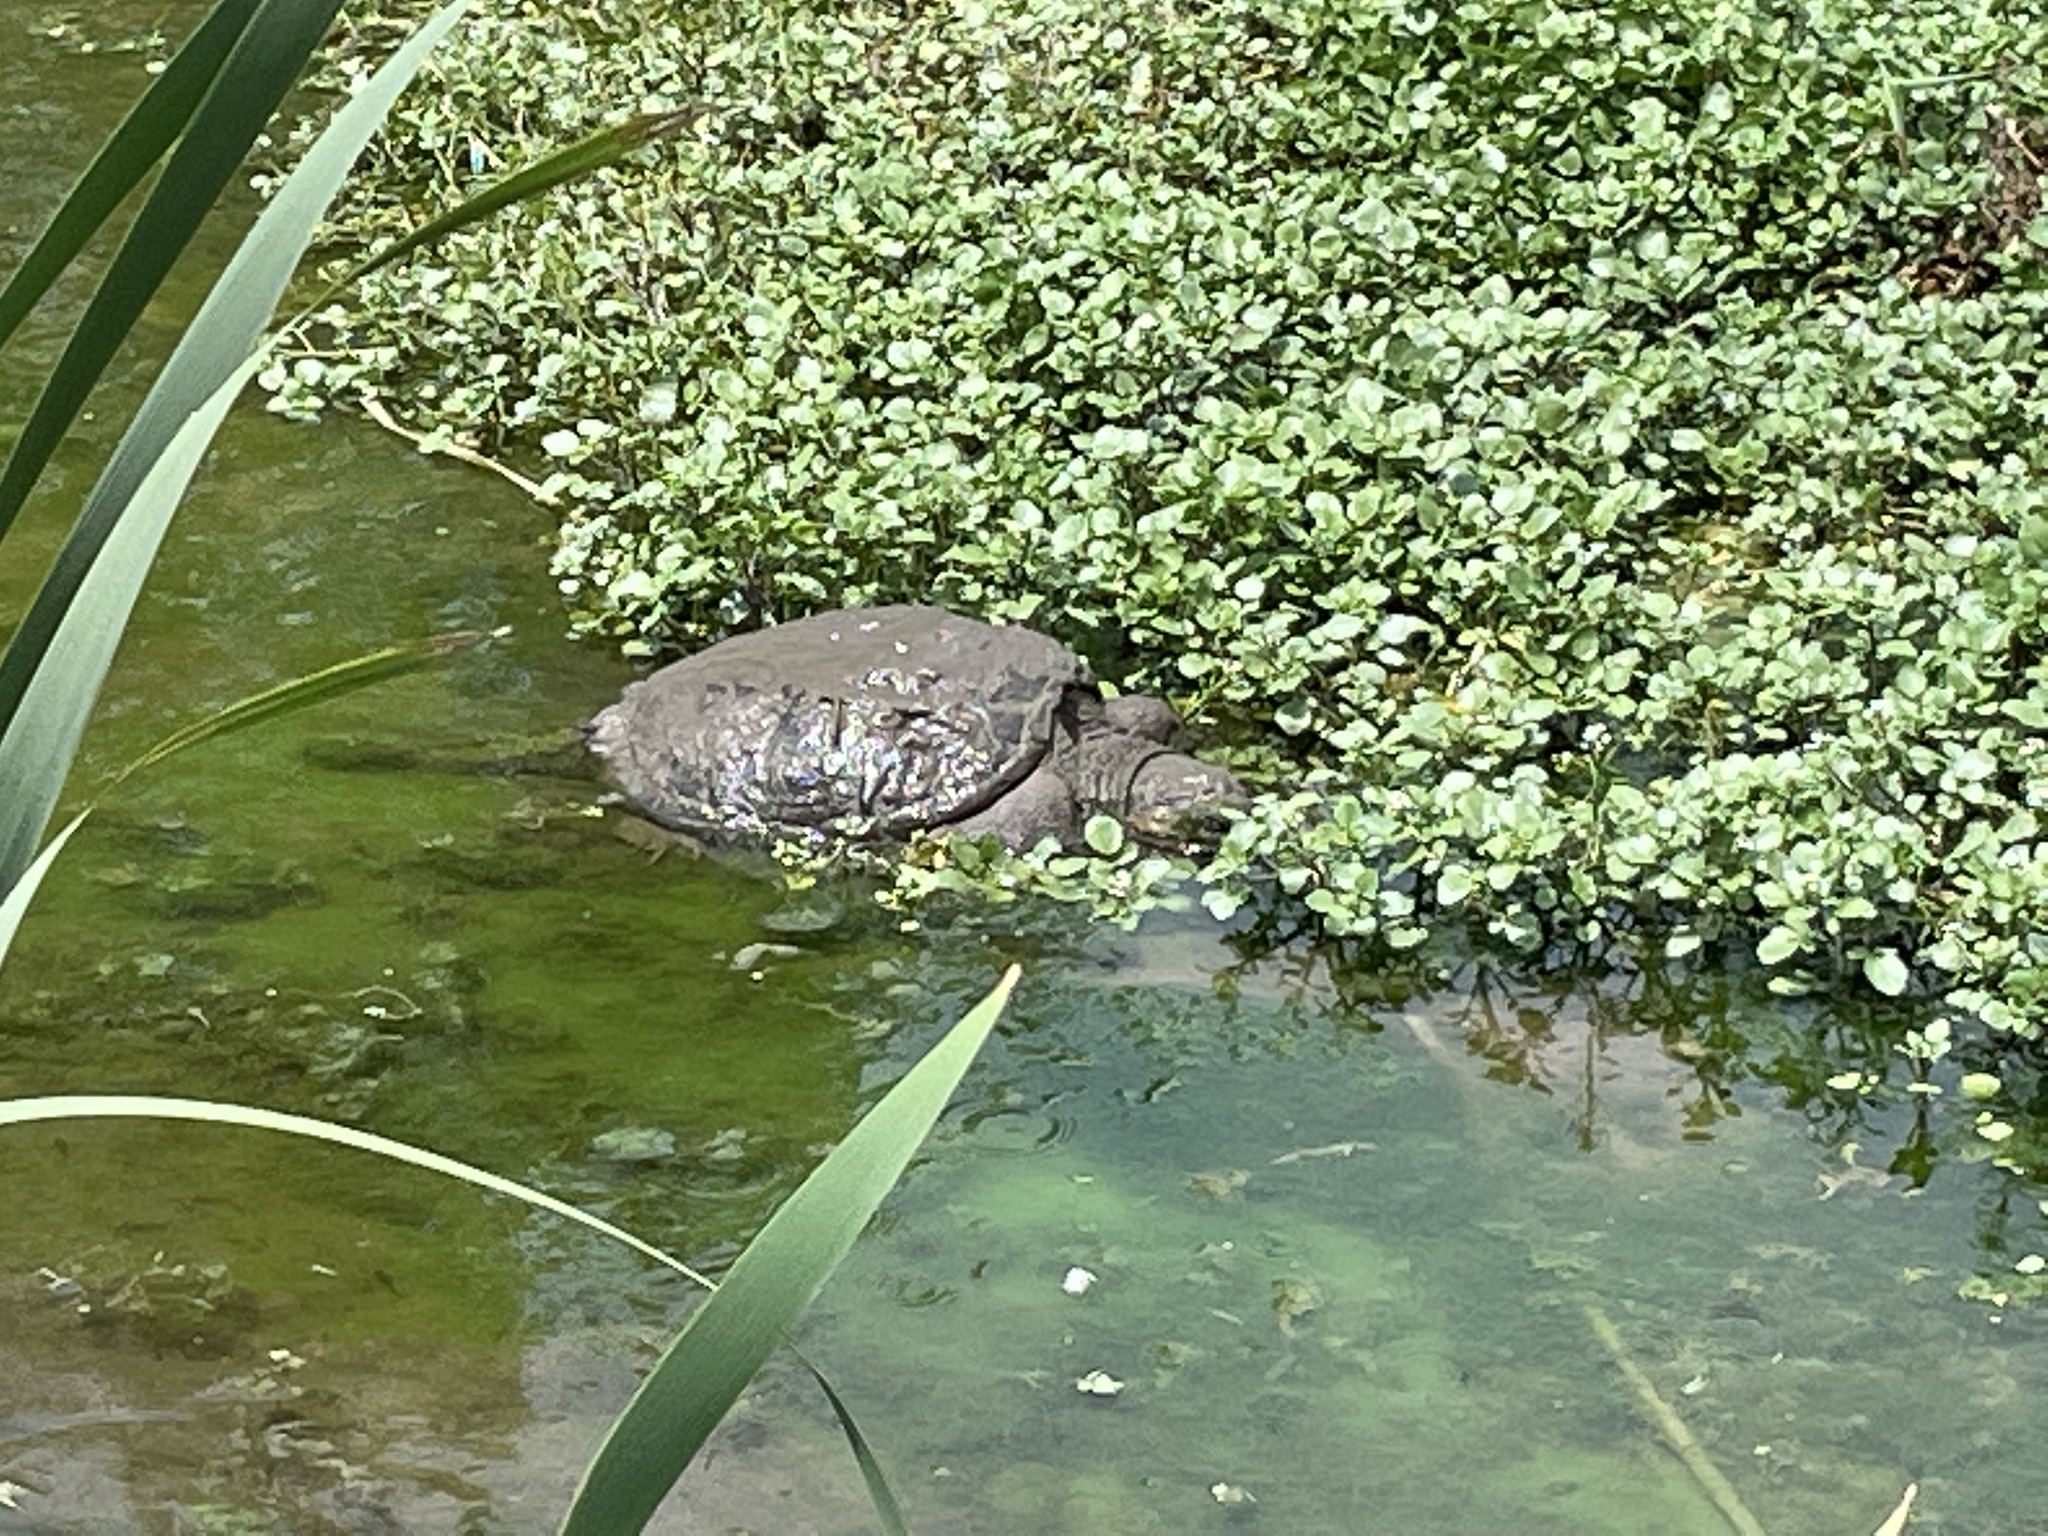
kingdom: Animalia
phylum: Chordata
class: Testudines
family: Chelydridae
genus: Chelydra
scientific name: Chelydra serpentina
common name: Common snapping turtle
